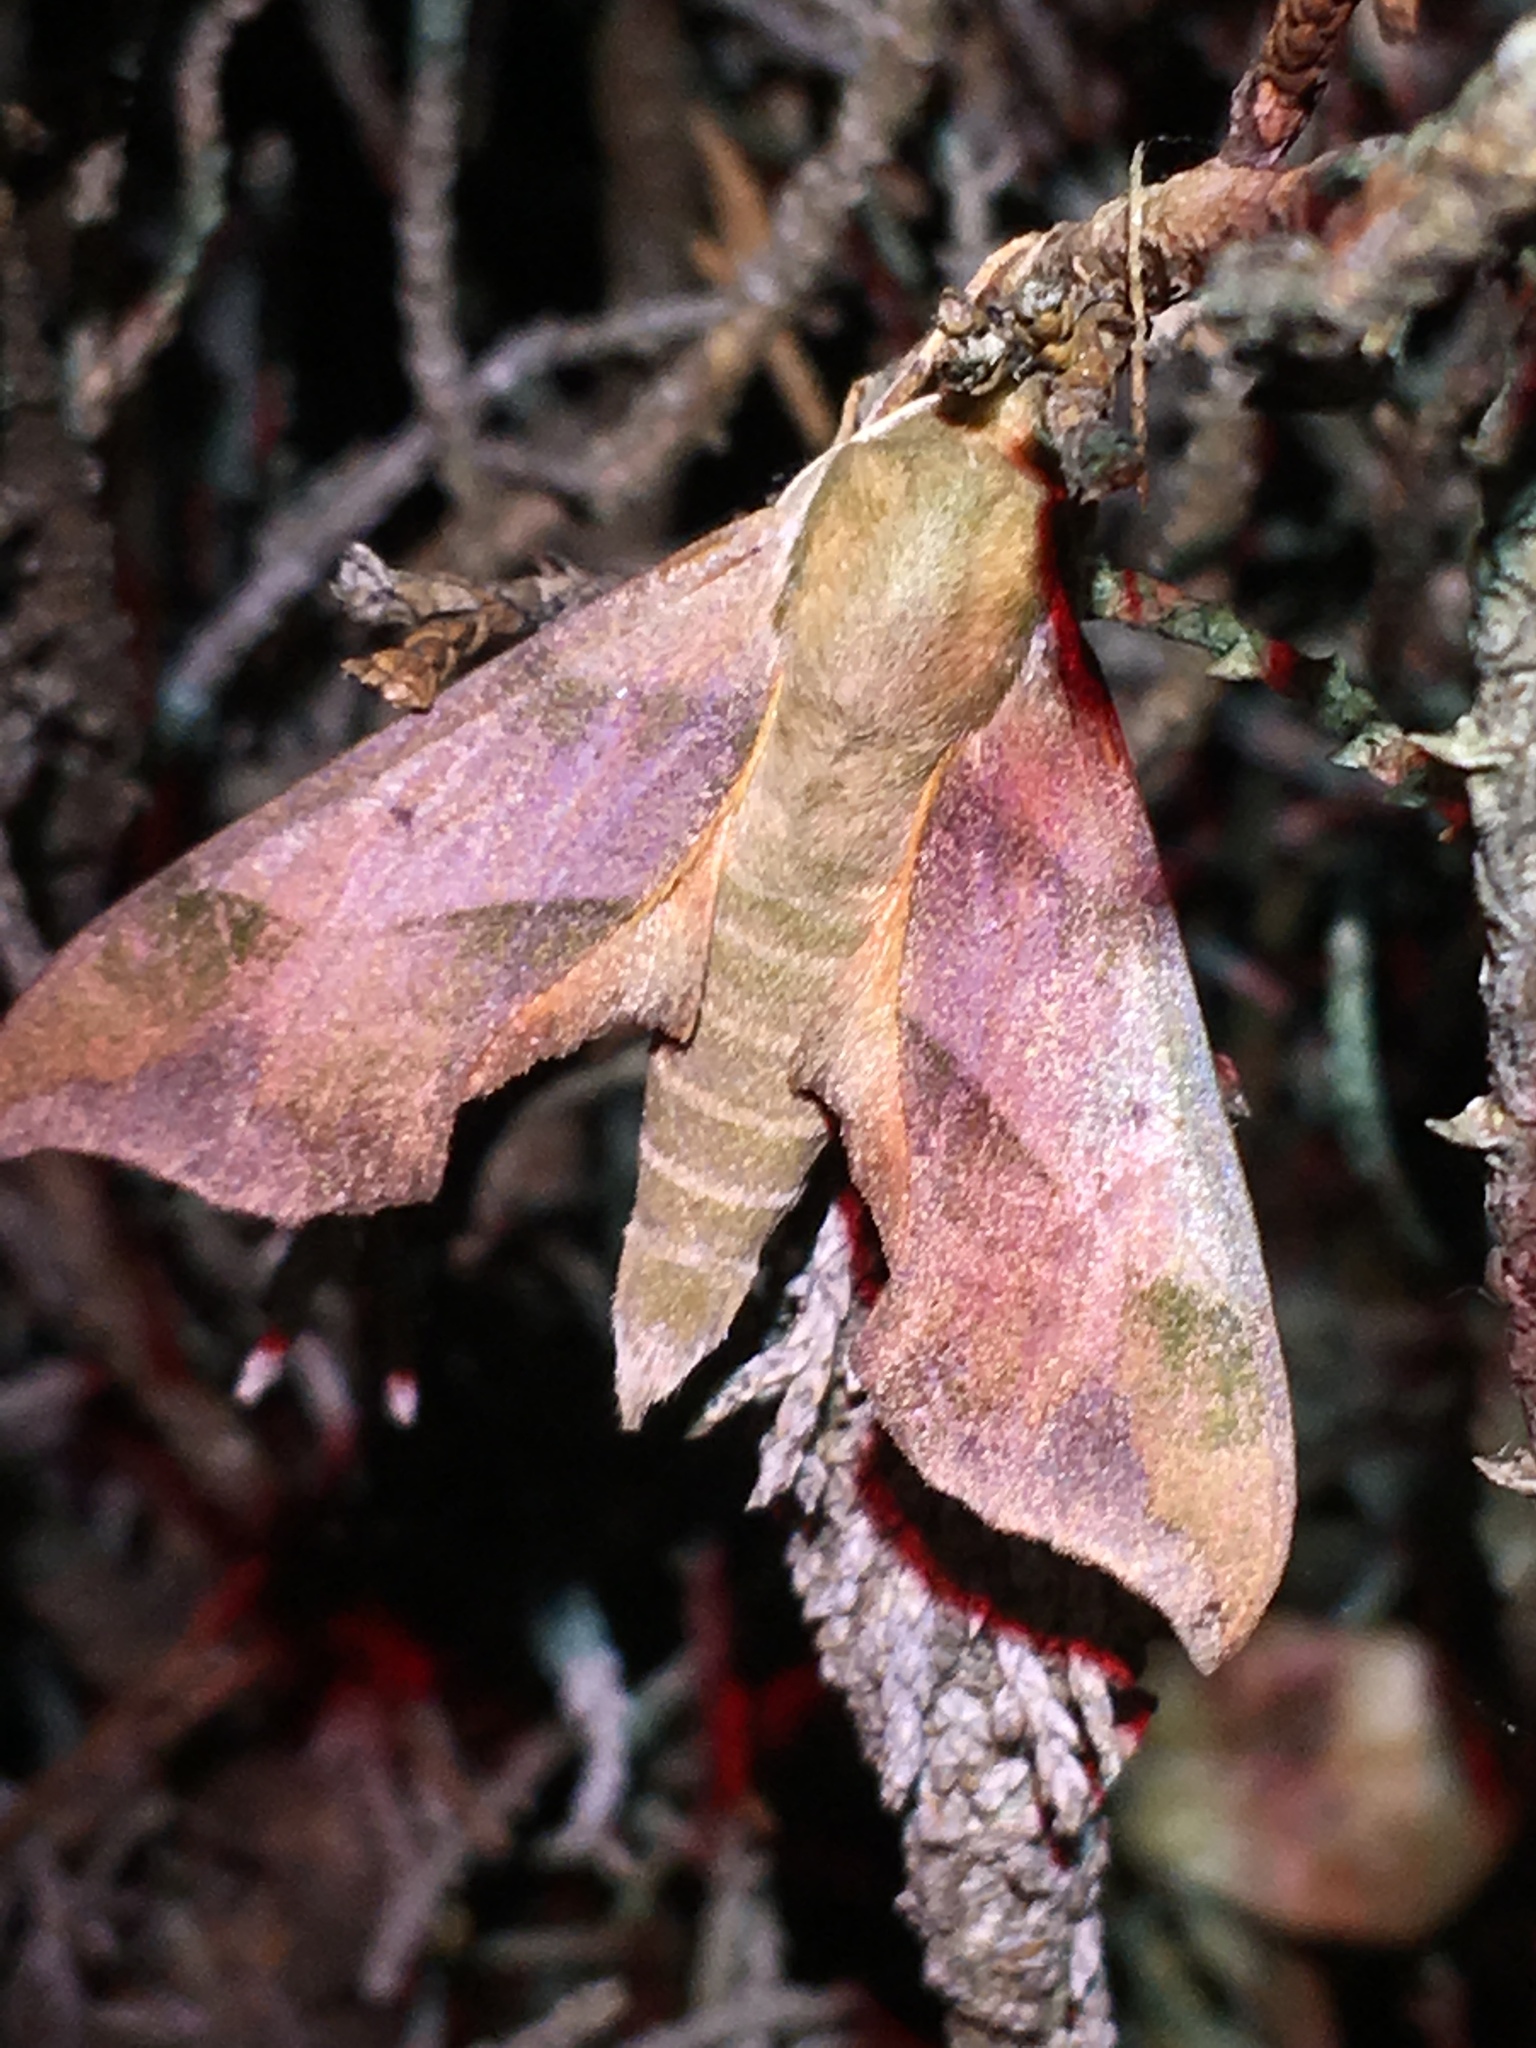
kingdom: Animalia
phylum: Arthropoda
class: Insecta
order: Lepidoptera
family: Sphingidae
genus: Darapsa
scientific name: Darapsa myron
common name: Hog sphinx
